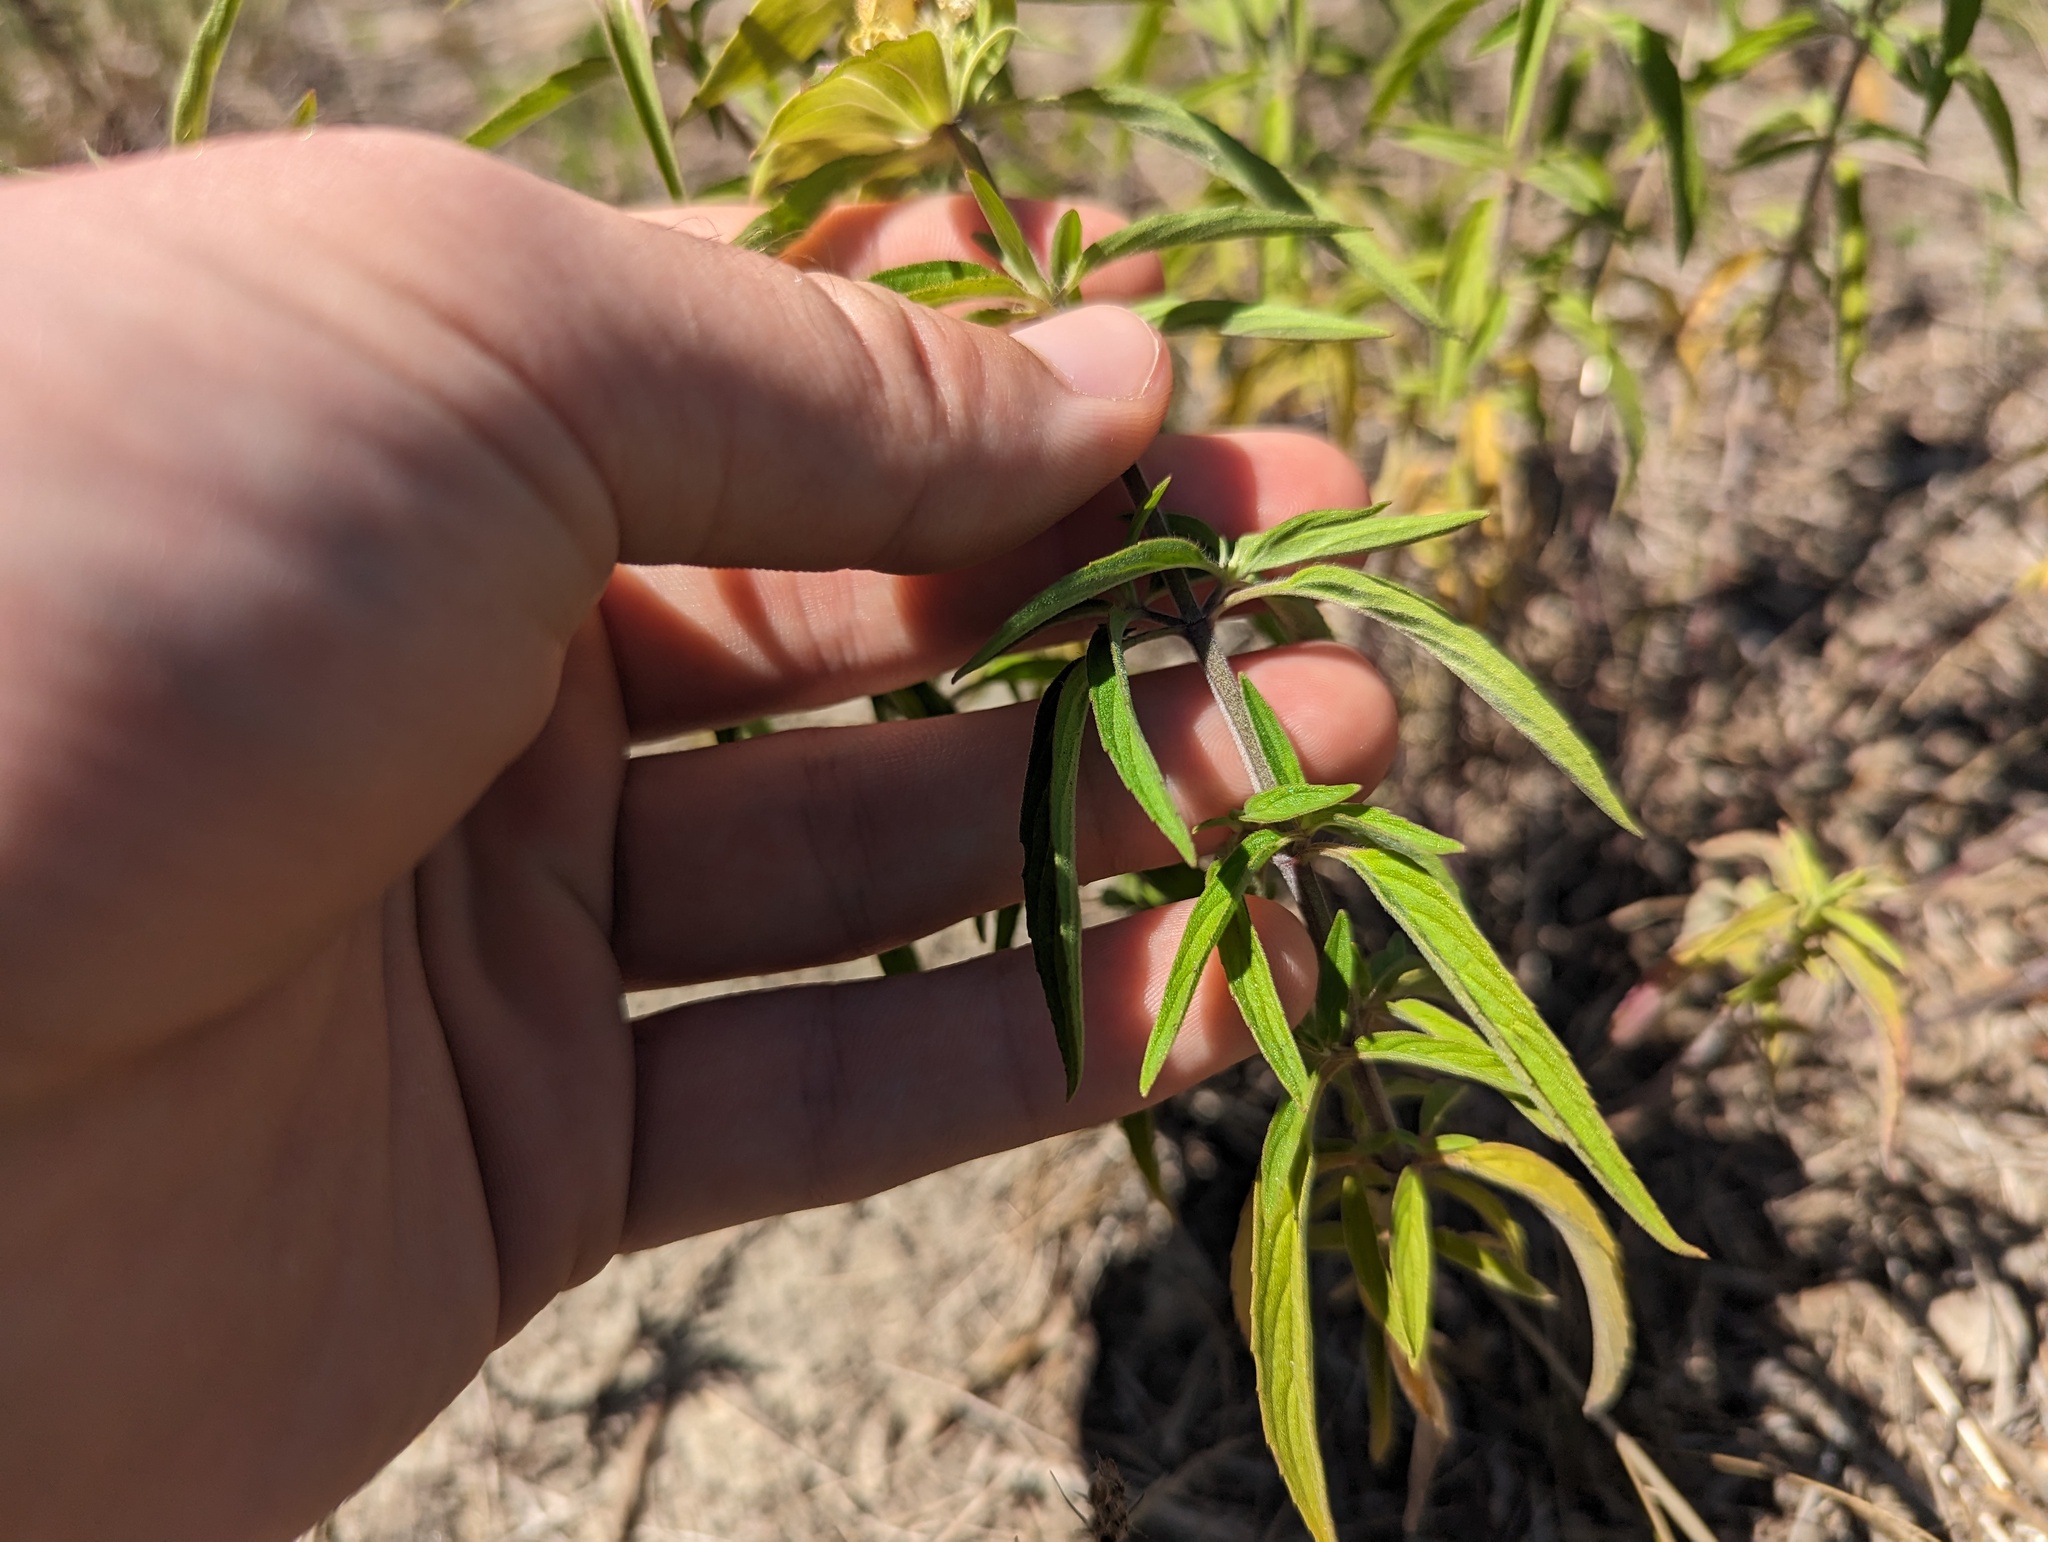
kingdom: Plantae
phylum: Tracheophyta
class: Magnoliopsida
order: Lamiales
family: Lamiaceae
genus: Monarda
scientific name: Monarda punctata
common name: Dotted monarda
